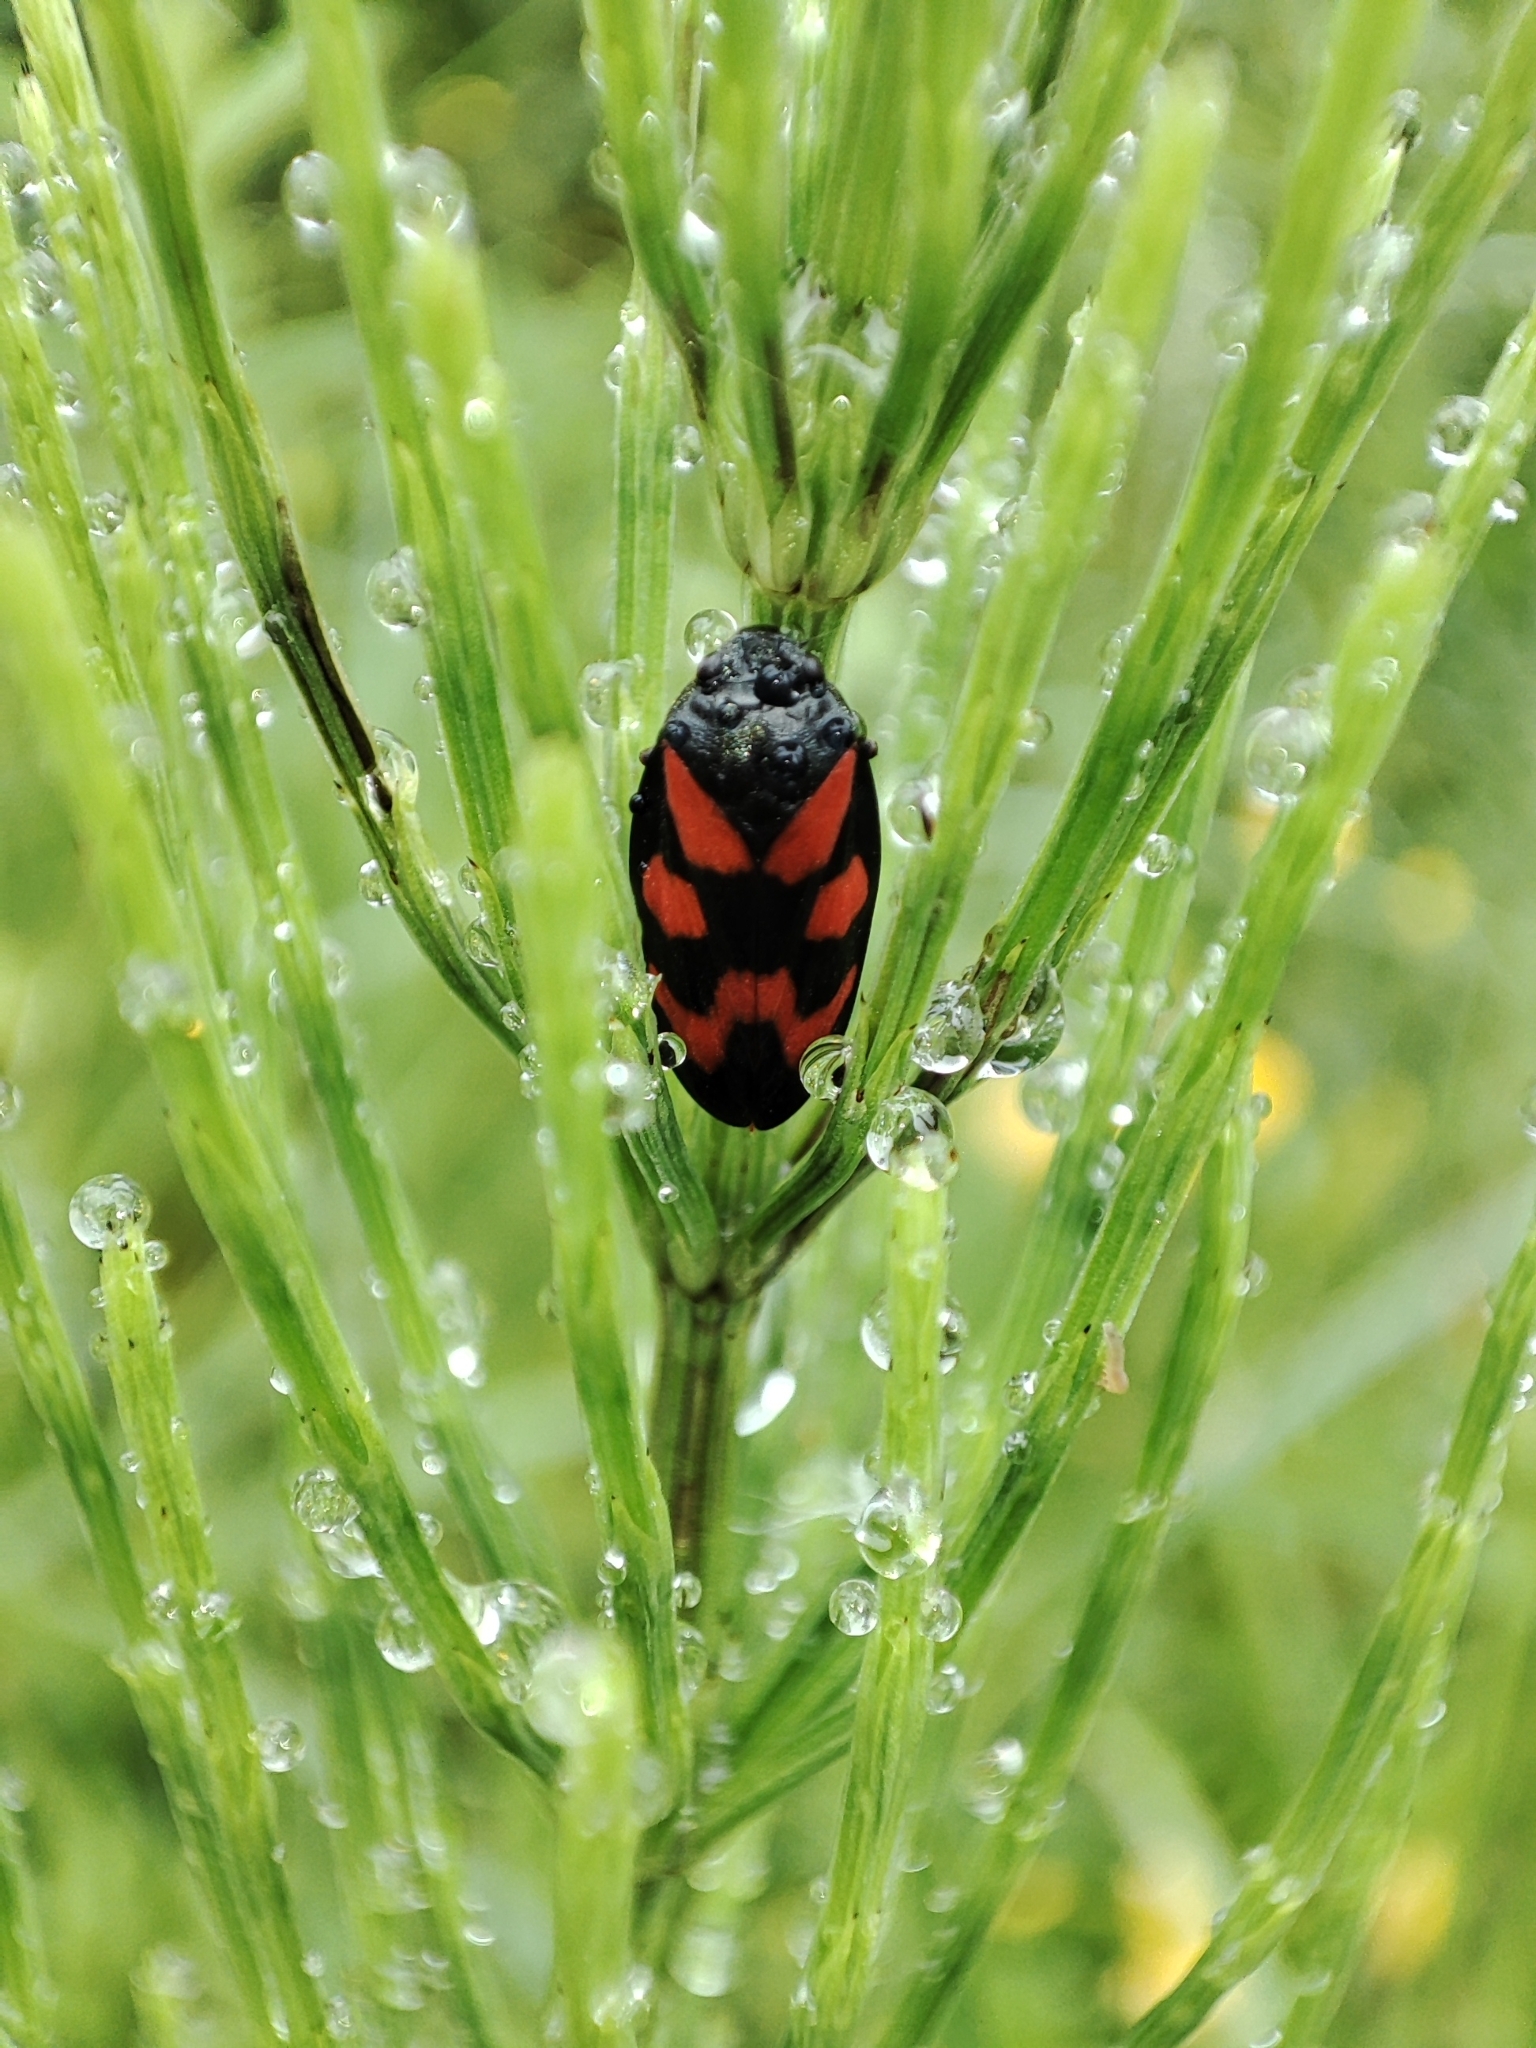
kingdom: Animalia
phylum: Arthropoda
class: Insecta
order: Hemiptera
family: Cercopidae
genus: Cercopis
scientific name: Cercopis vulnerata
